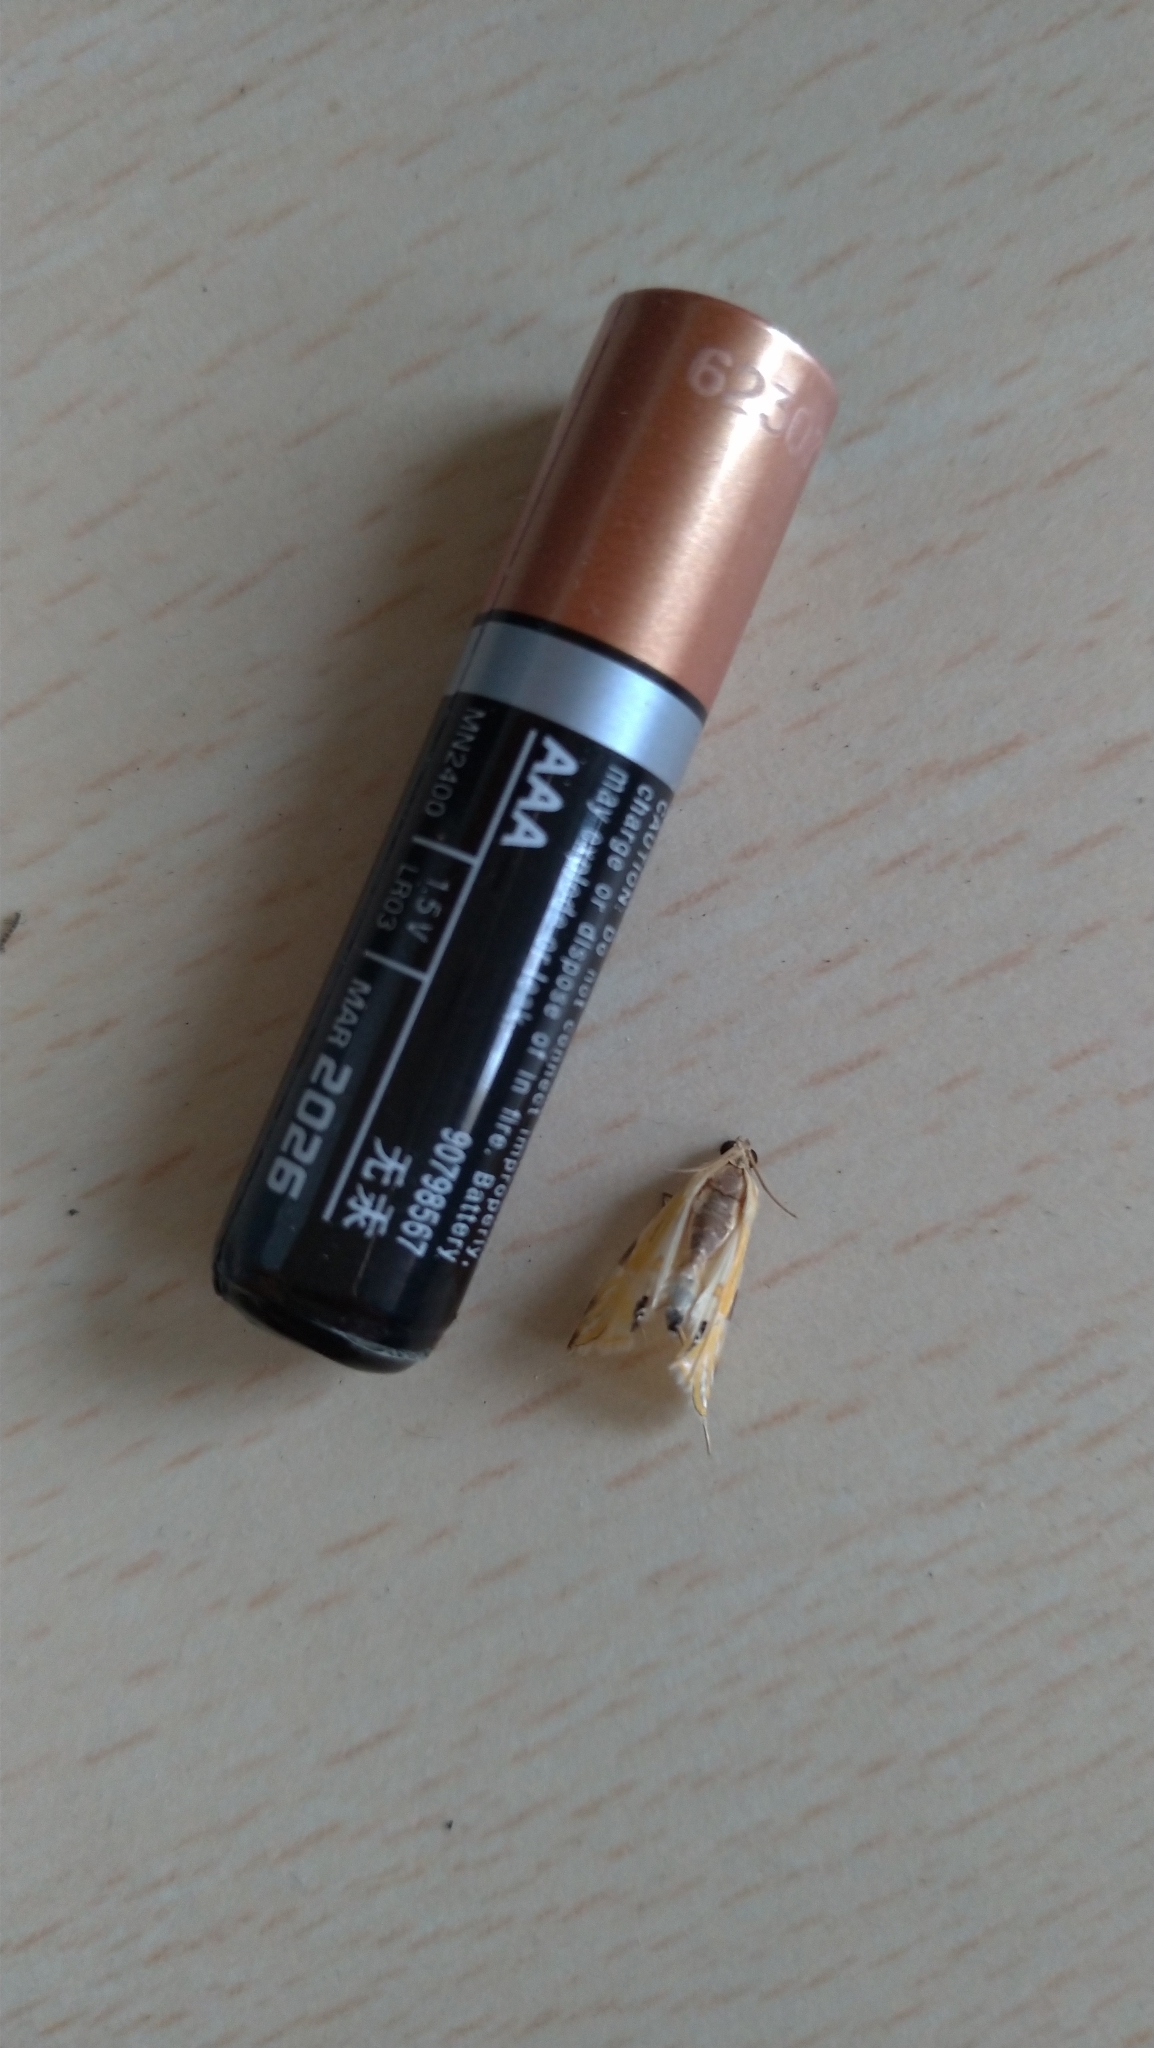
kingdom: Animalia
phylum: Arthropoda
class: Insecta
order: Lepidoptera
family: Crambidae
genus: Talanga
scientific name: Talanga sexpunctalis
